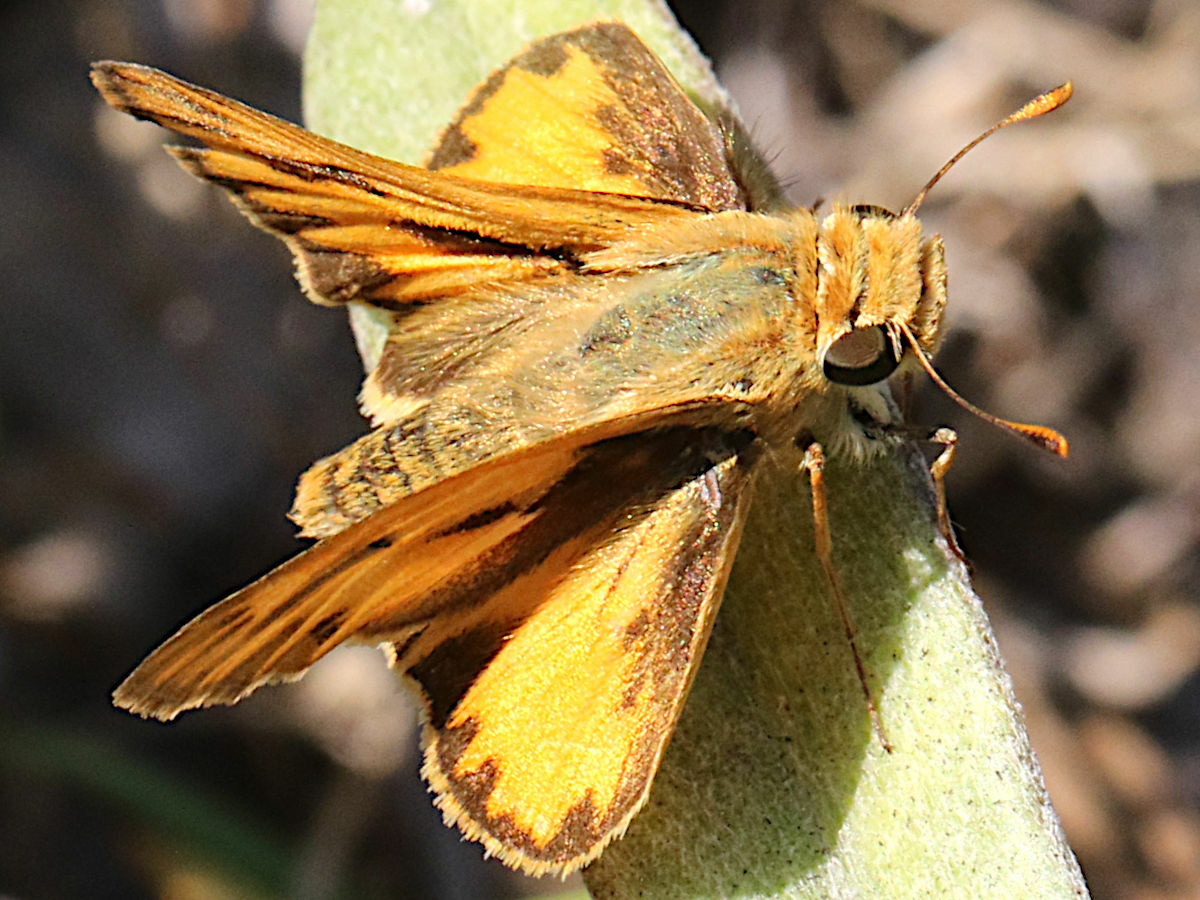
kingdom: Animalia
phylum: Arthropoda
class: Insecta
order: Lepidoptera
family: Hesperiidae
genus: Hylephila
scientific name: Hylephila phyleus
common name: Fiery skipper
